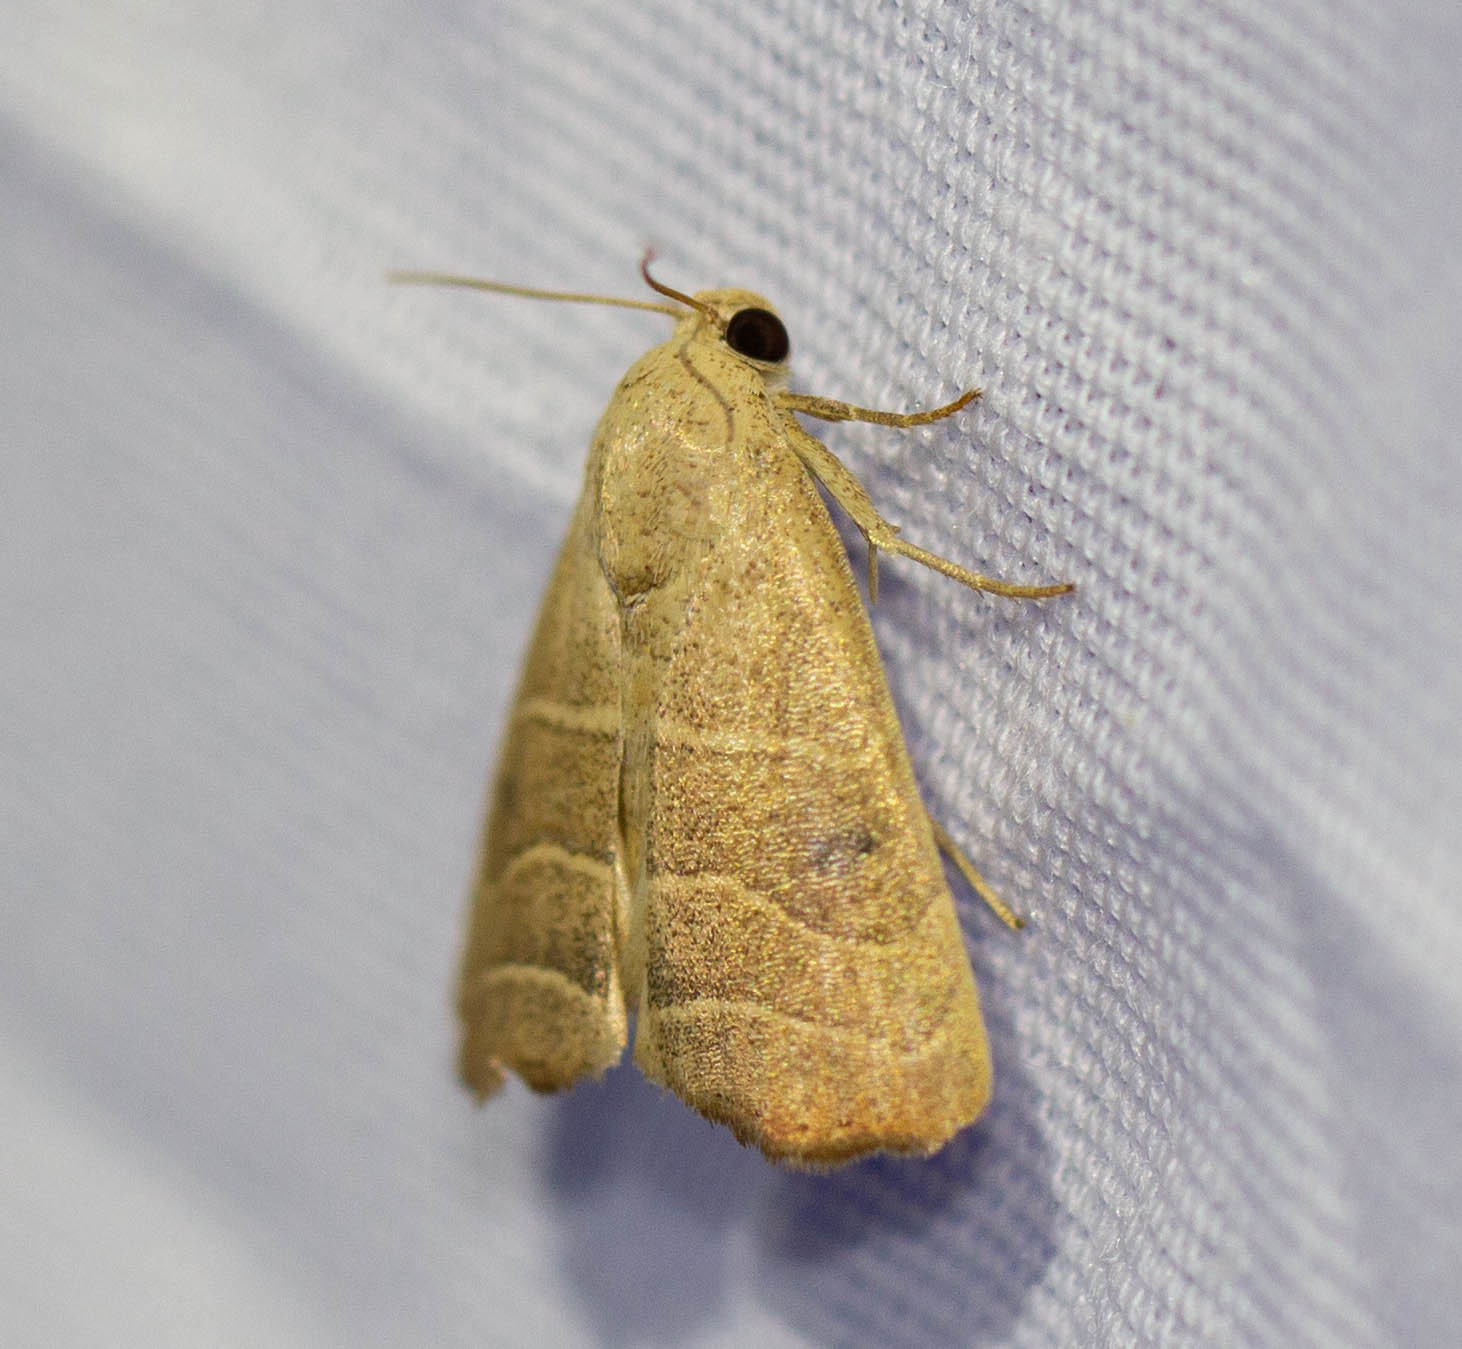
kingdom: Animalia
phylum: Arthropoda
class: Insecta
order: Lepidoptera
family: Noctuidae
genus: Bagisara
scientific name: Bagisara repanda
